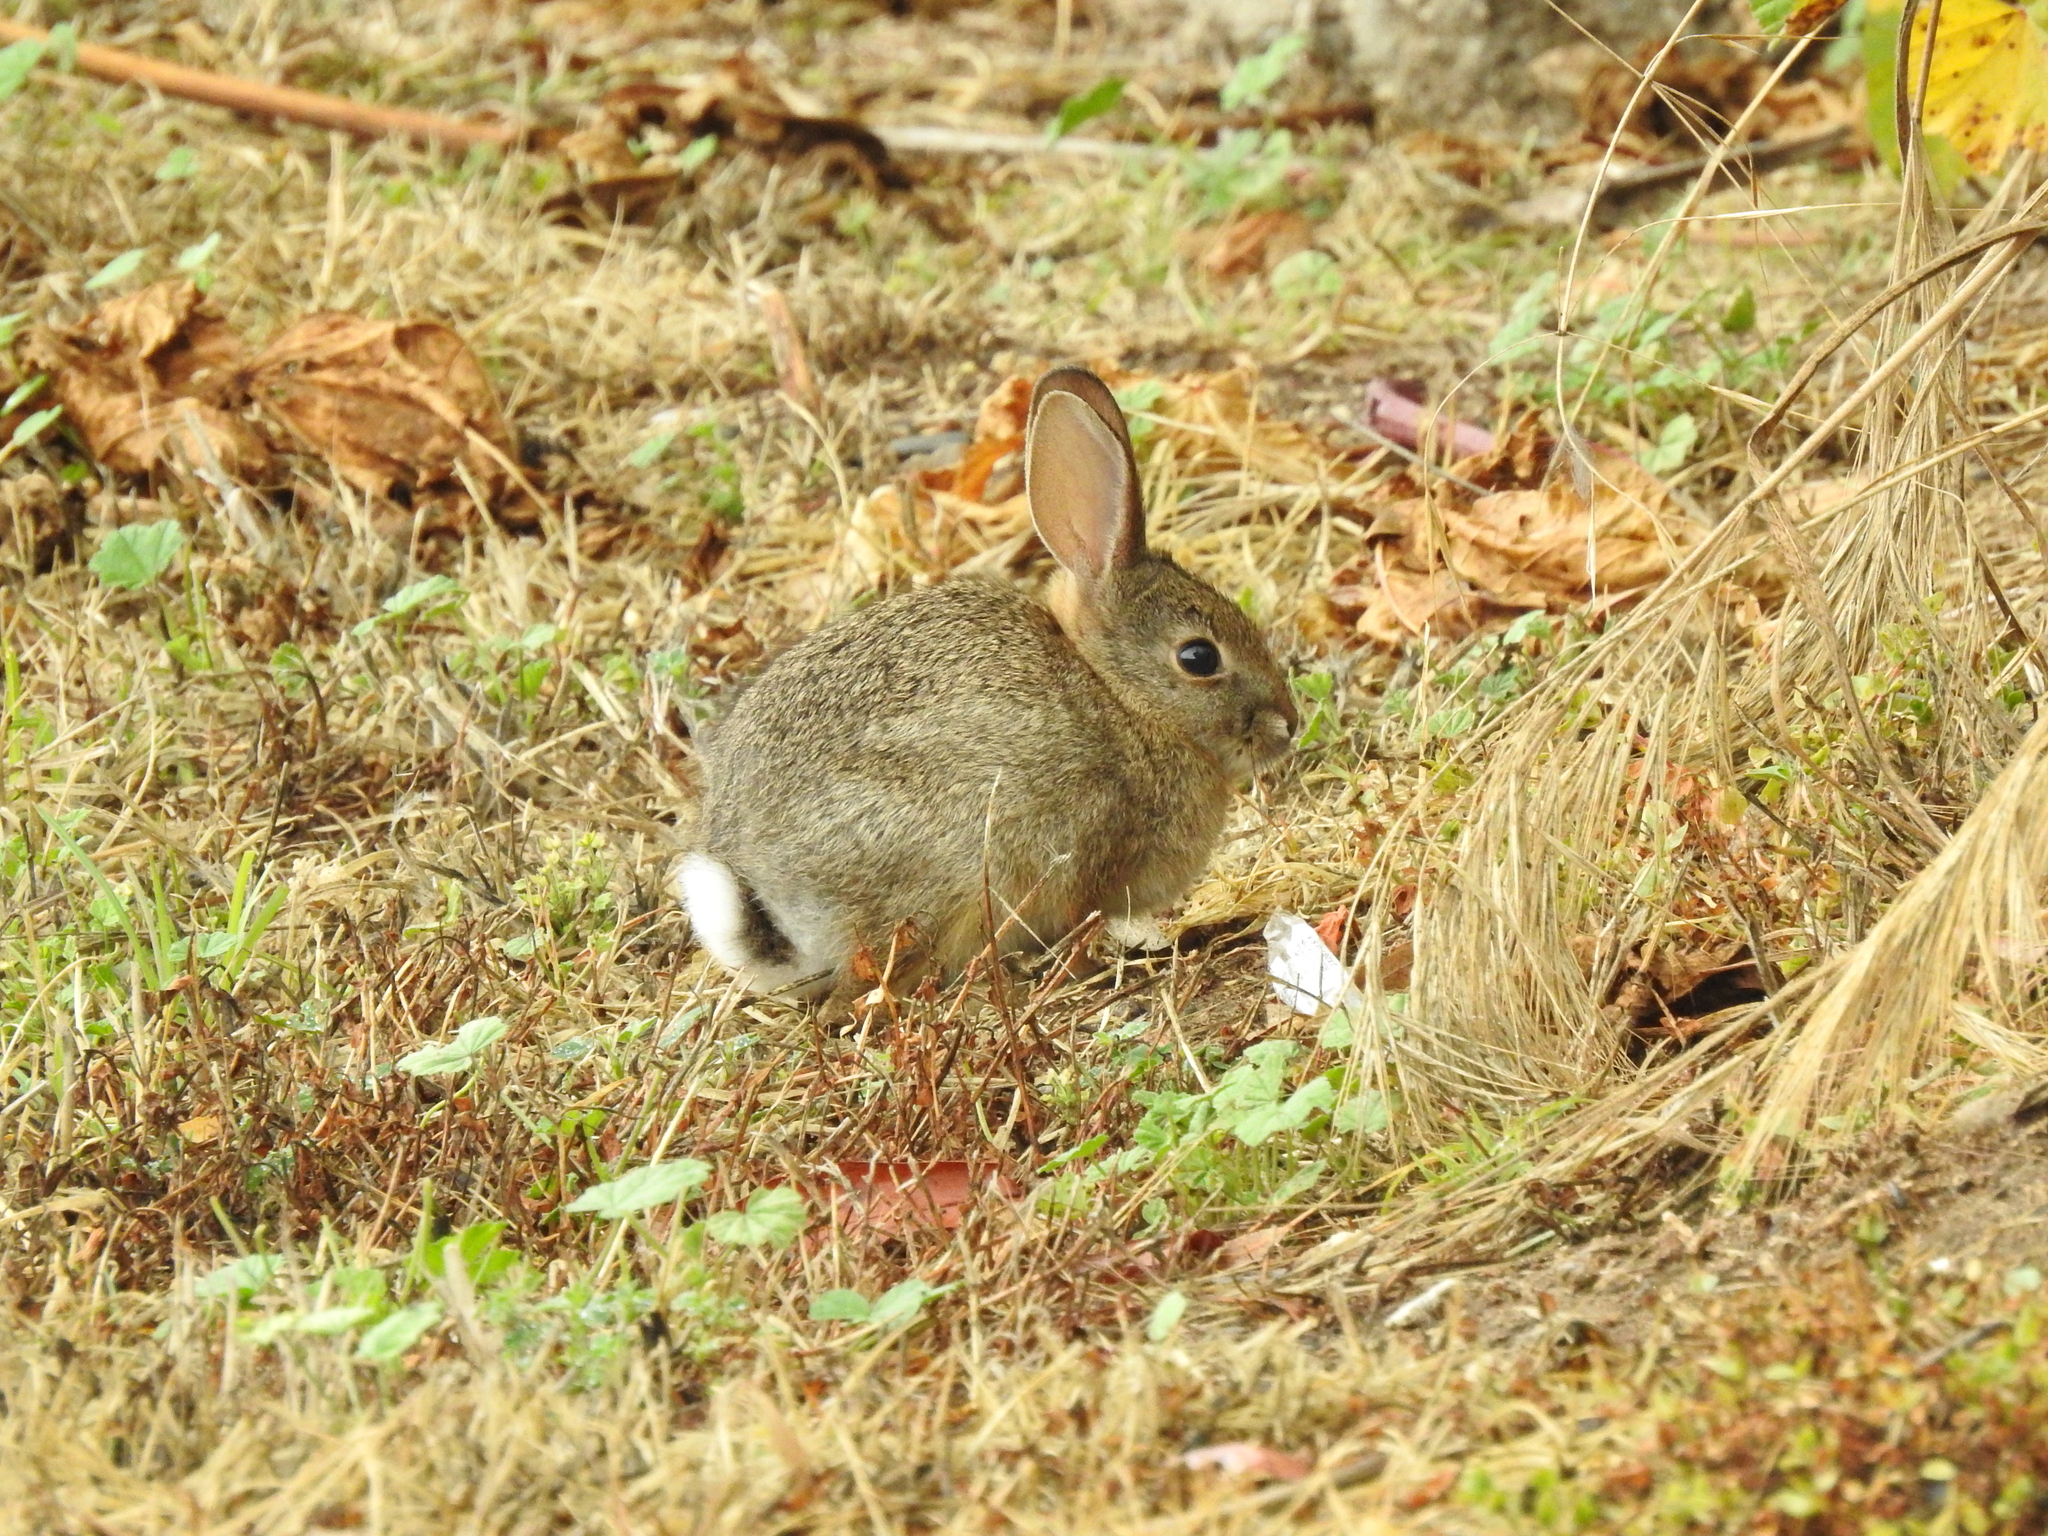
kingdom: Animalia
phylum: Chordata
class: Mammalia
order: Lagomorpha
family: Leporidae
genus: Sylvilagus
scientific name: Sylvilagus audubonii
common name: Desert cottontail
